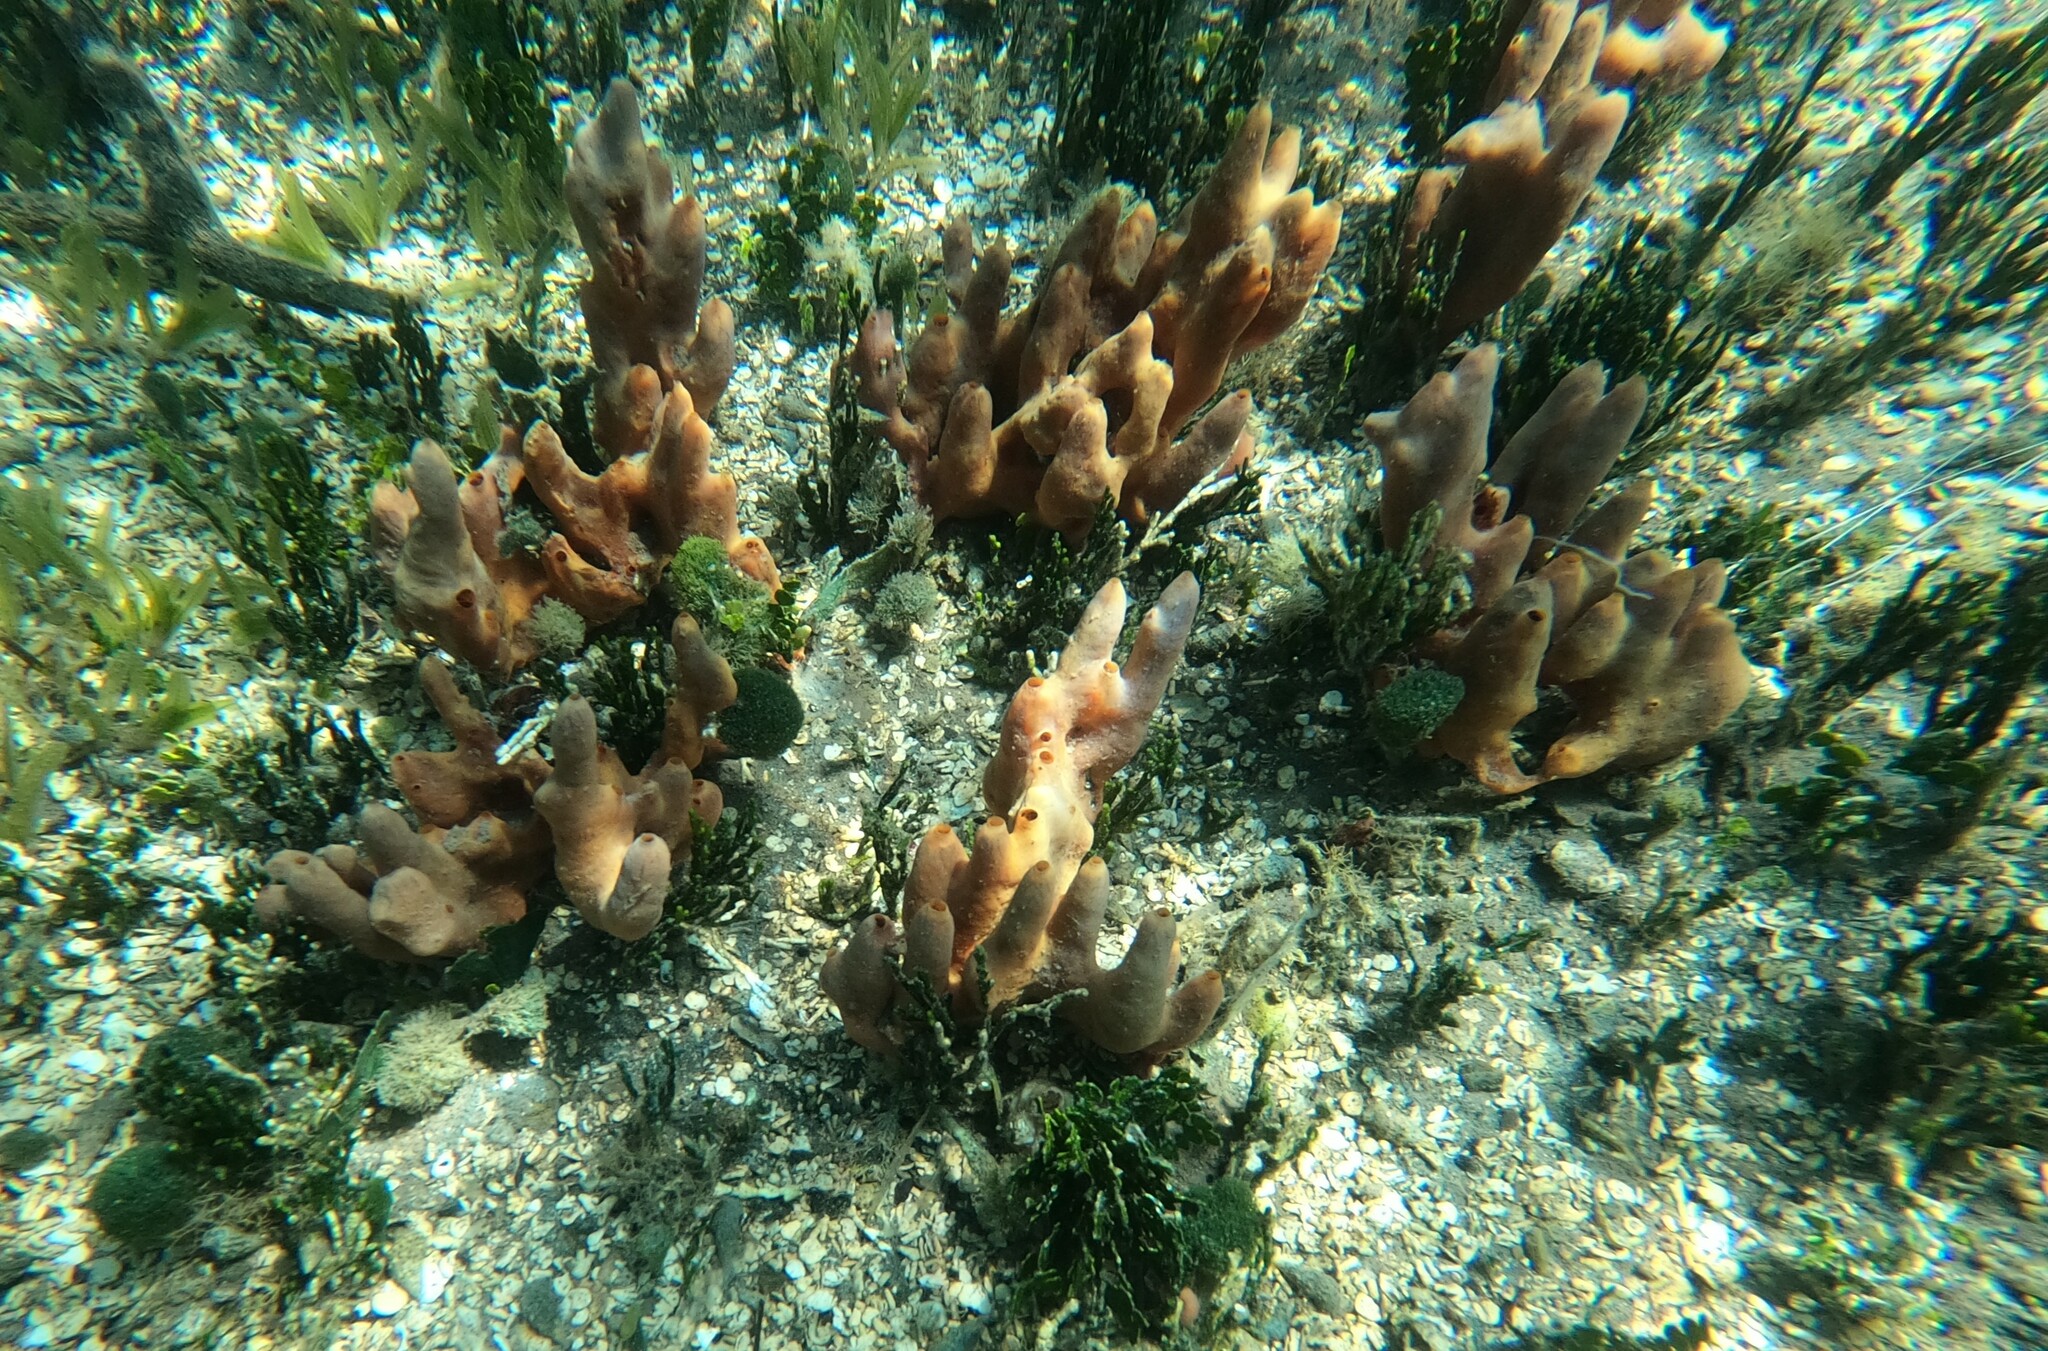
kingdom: Animalia
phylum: Porifera
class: Demospongiae
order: Poecilosclerida
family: Desmacididae
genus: Desmapsamma
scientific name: Desmapsamma anchorata
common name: Lumpy overgrowing sponge
